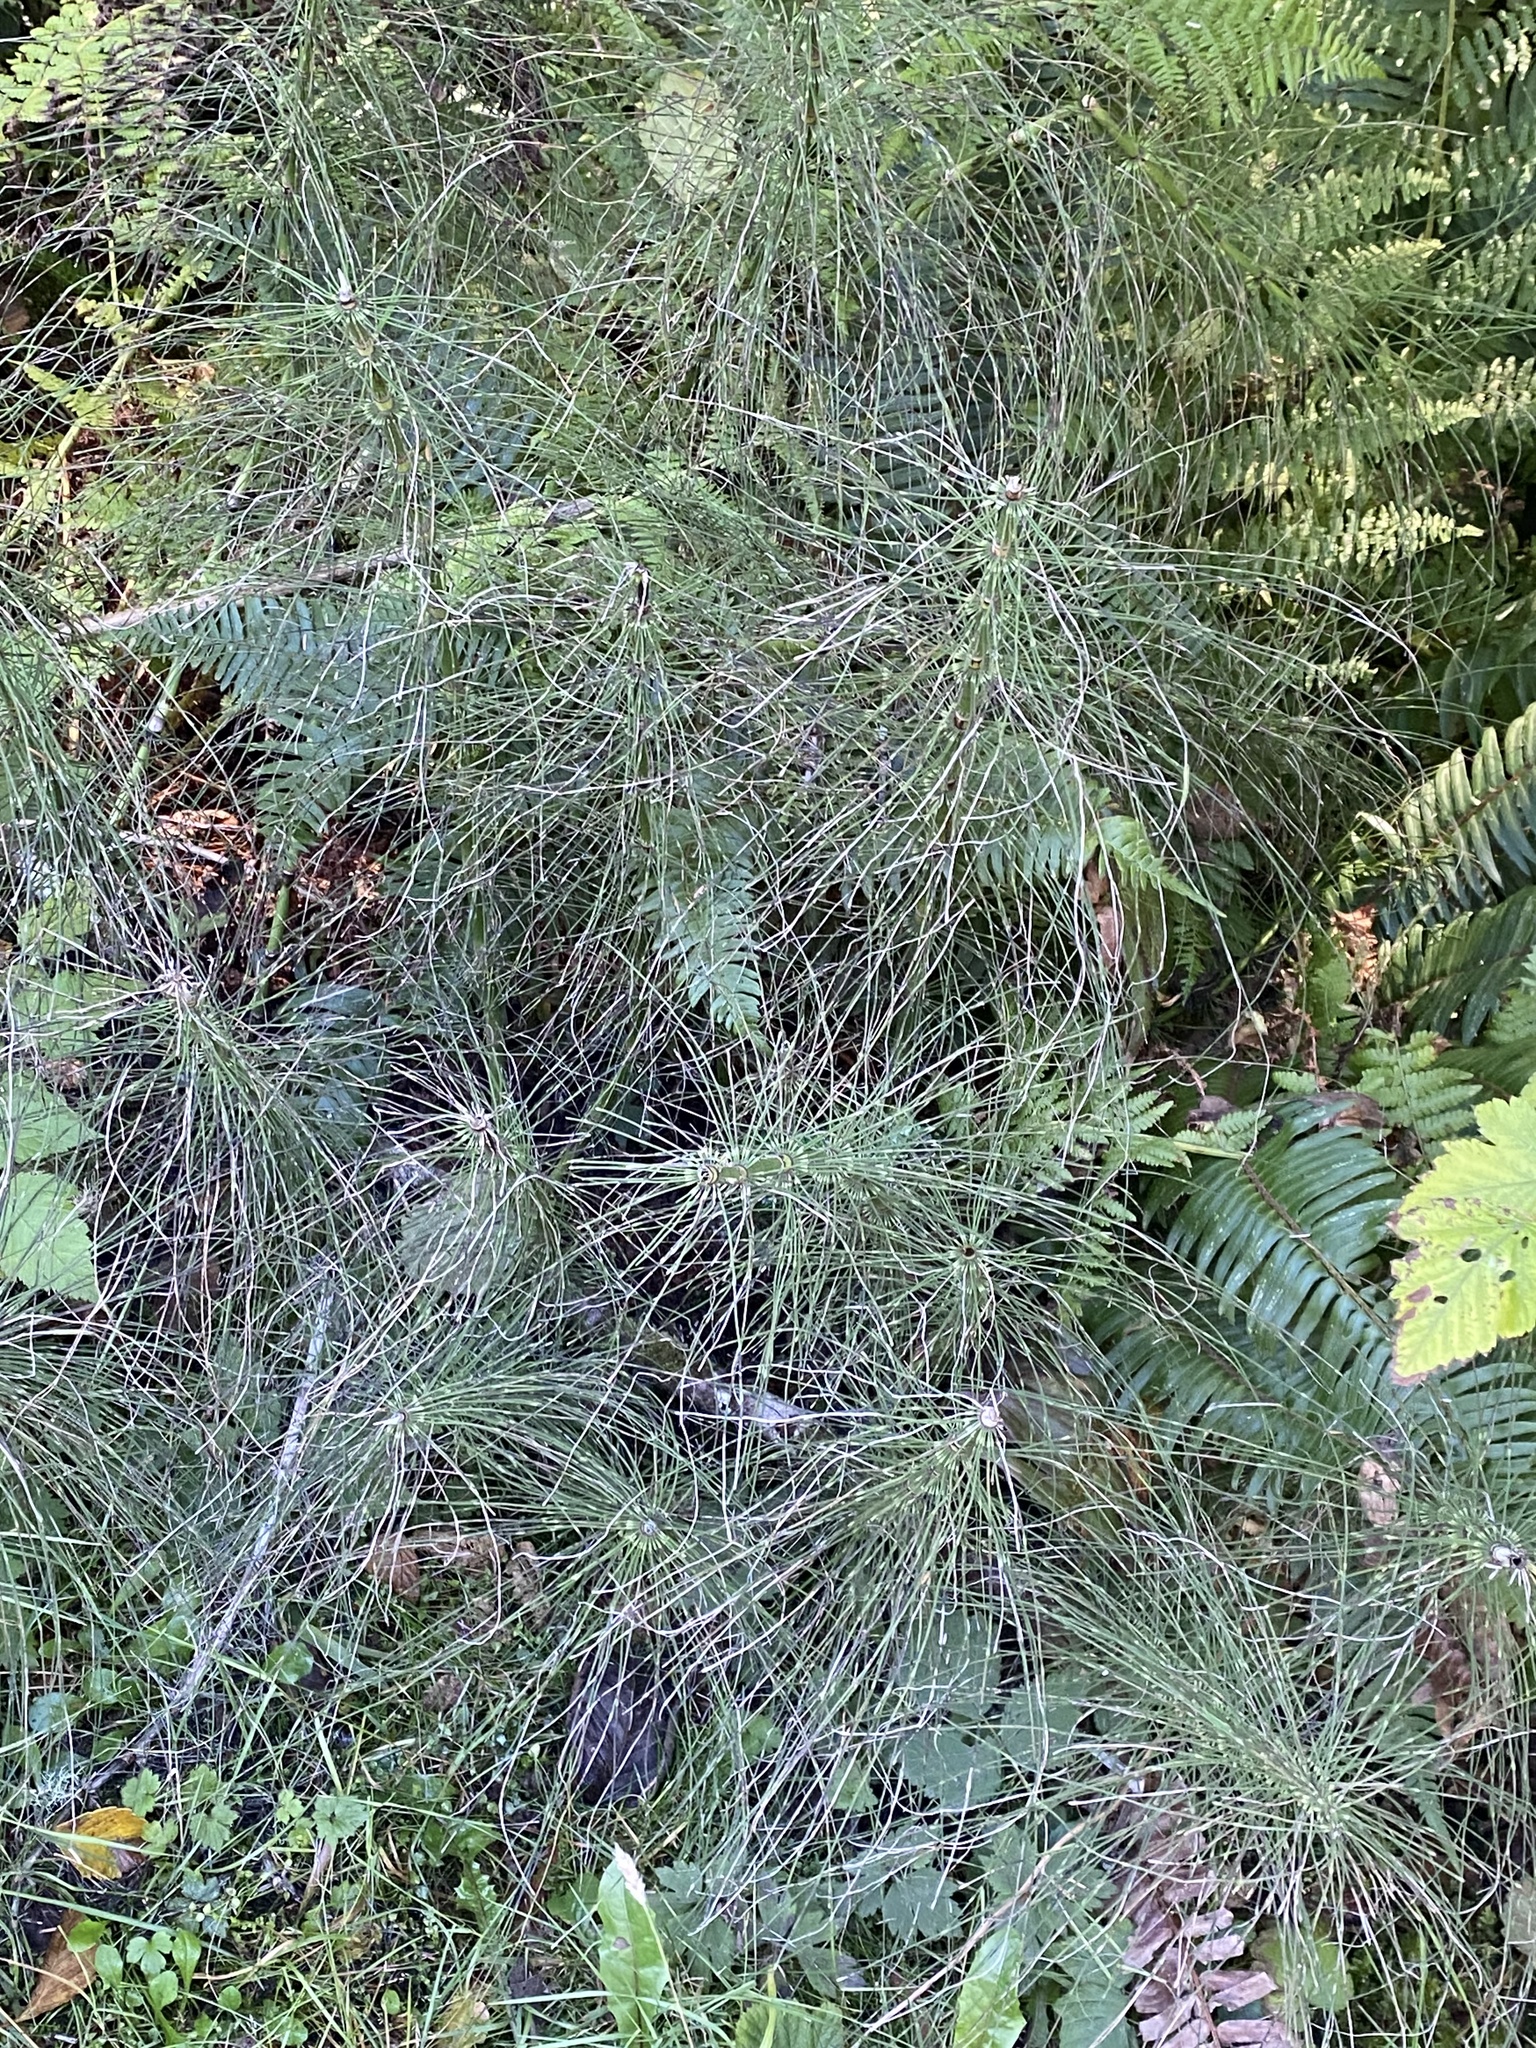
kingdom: Plantae
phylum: Tracheophyta
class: Polypodiopsida
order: Equisetales
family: Equisetaceae
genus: Equisetum
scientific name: Equisetum braunii
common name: Braun's horsetail
